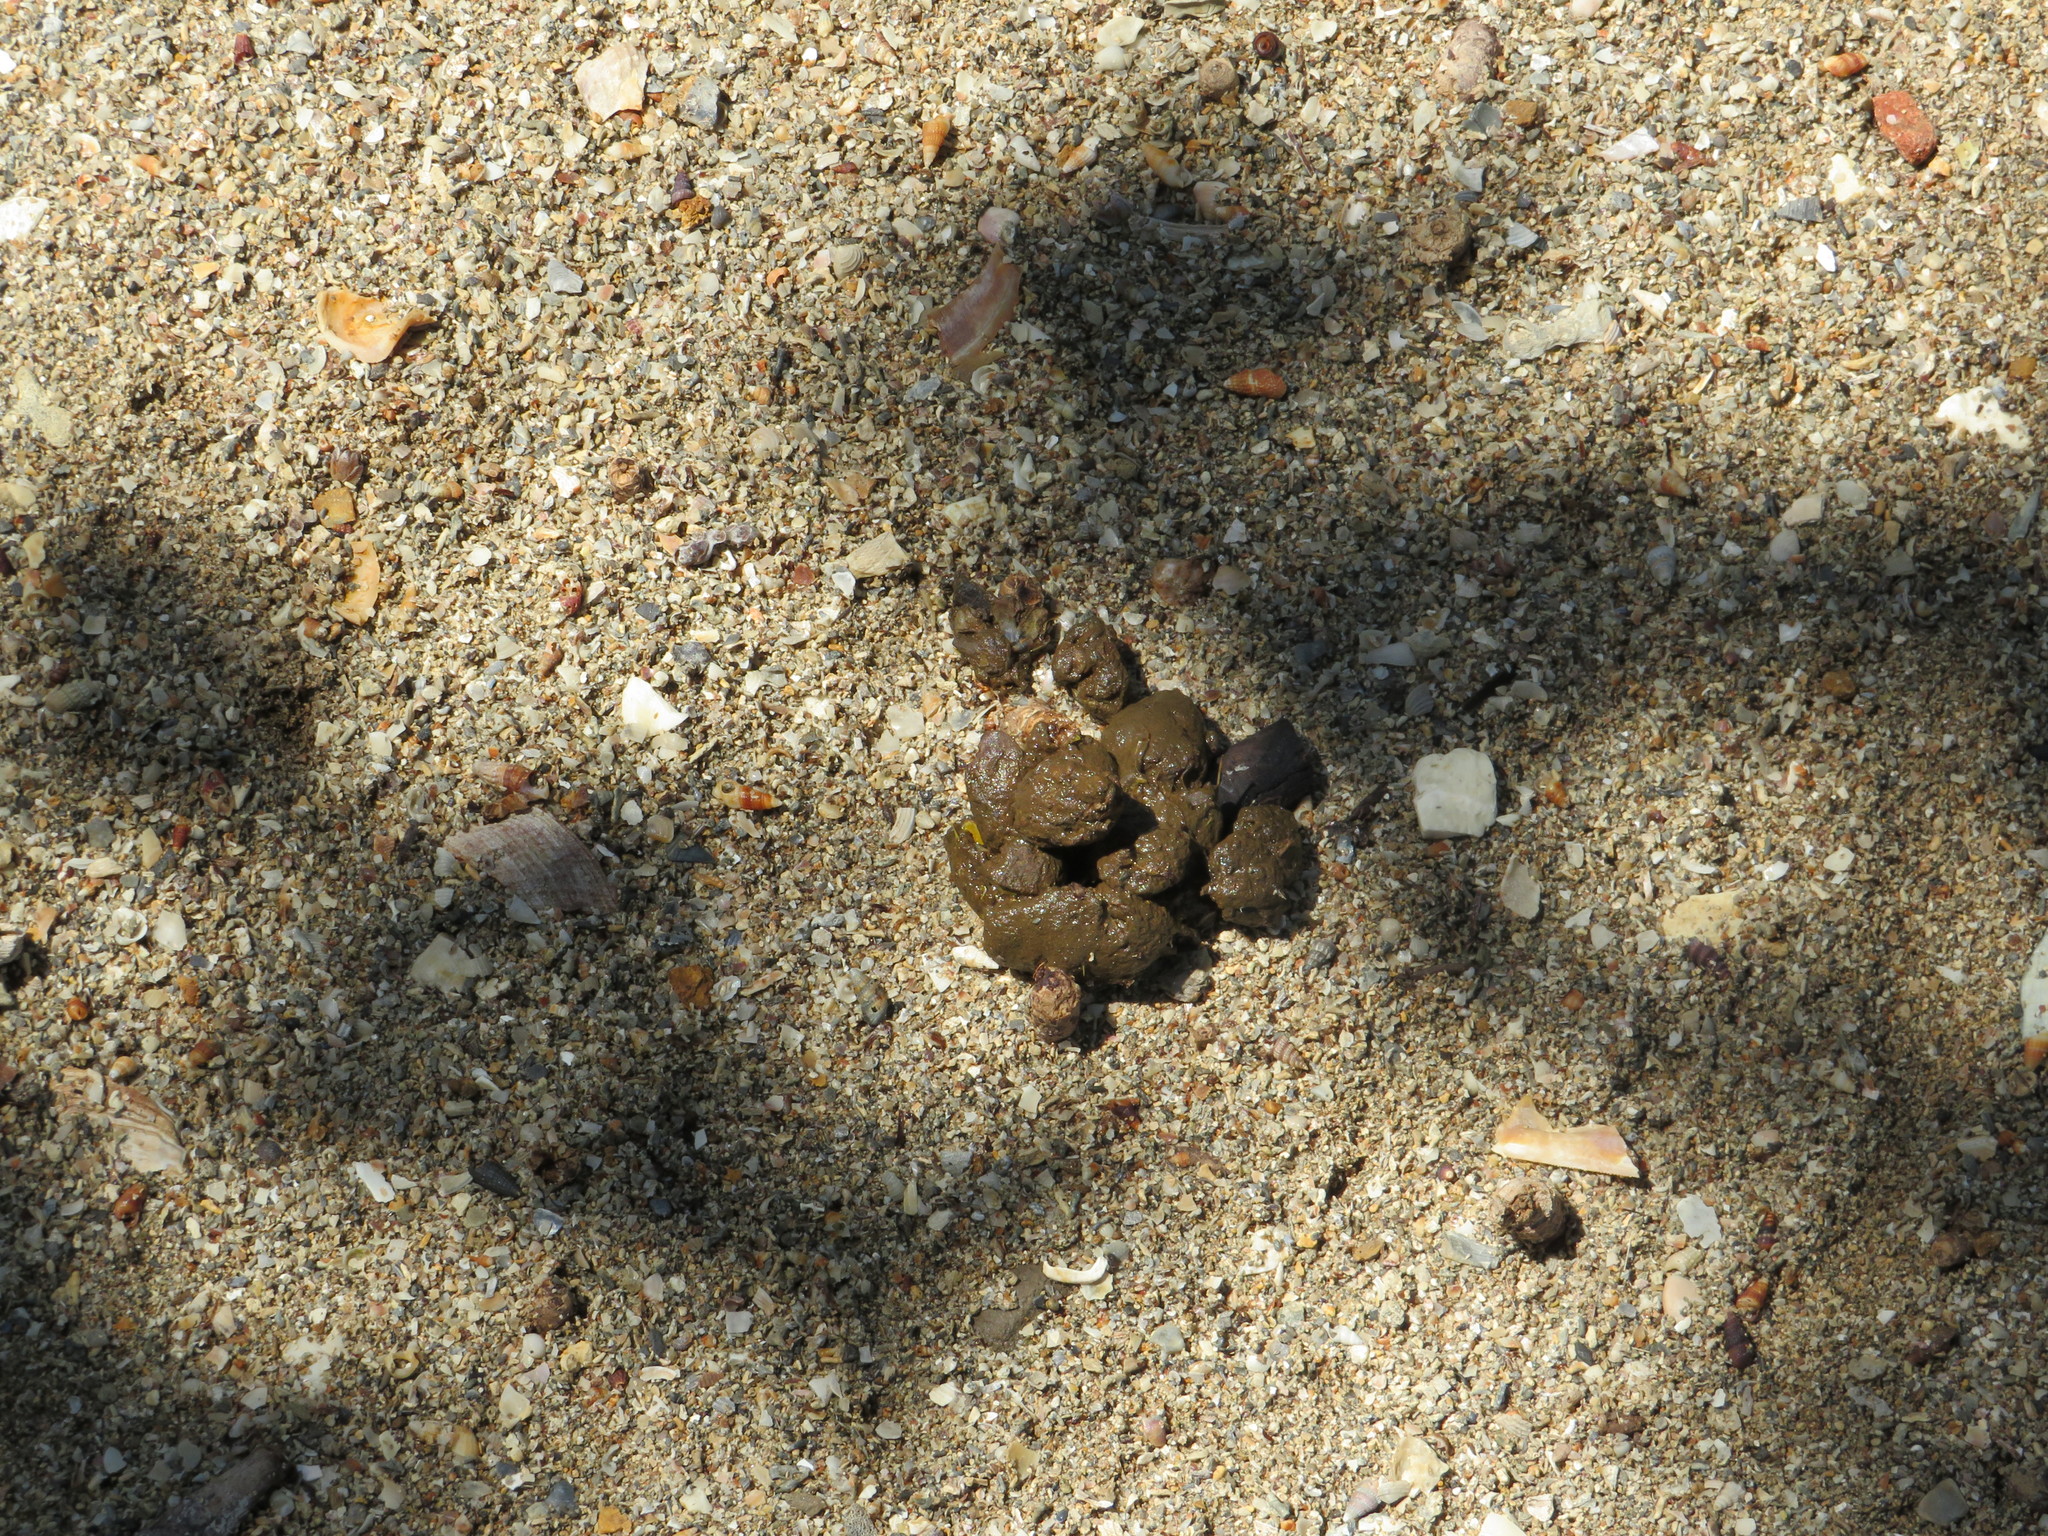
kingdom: Animalia
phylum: Chordata
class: Squamata
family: Iguanidae
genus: Cyclura
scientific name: Cyclura cornuta
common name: Hispaniolan rhinoceros iguana
